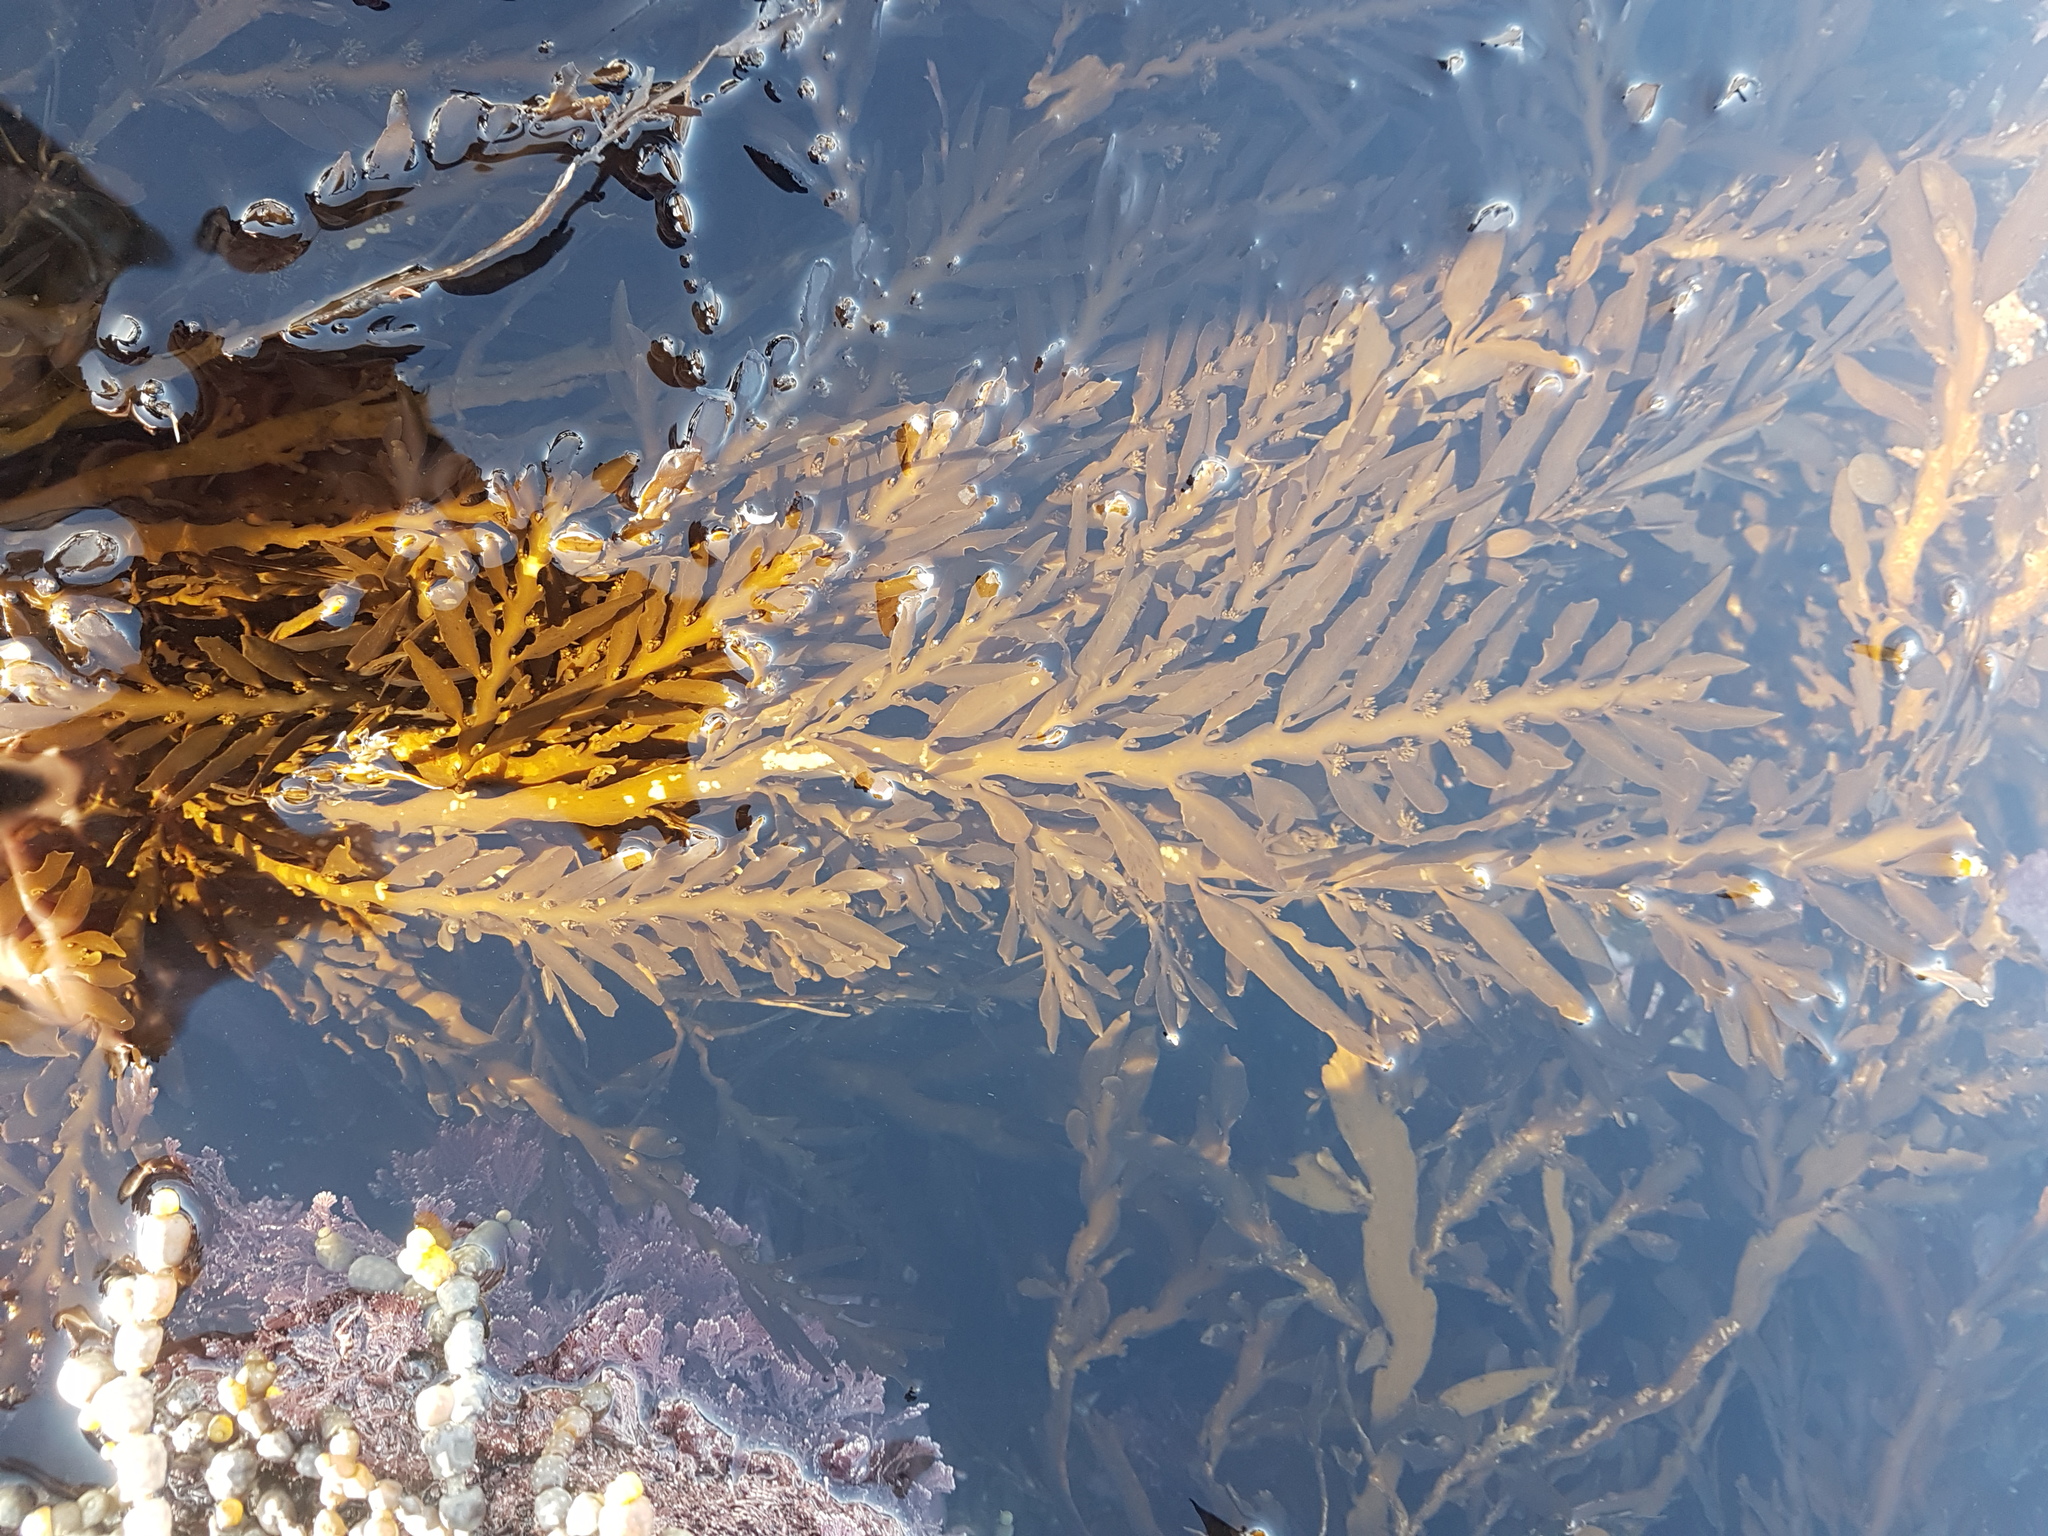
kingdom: Chromista
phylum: Ochrophyta
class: Phaeophyceae
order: Fucales
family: Sargassaceae
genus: Carpophyllum
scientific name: Carpophyllum maschalocarpum
